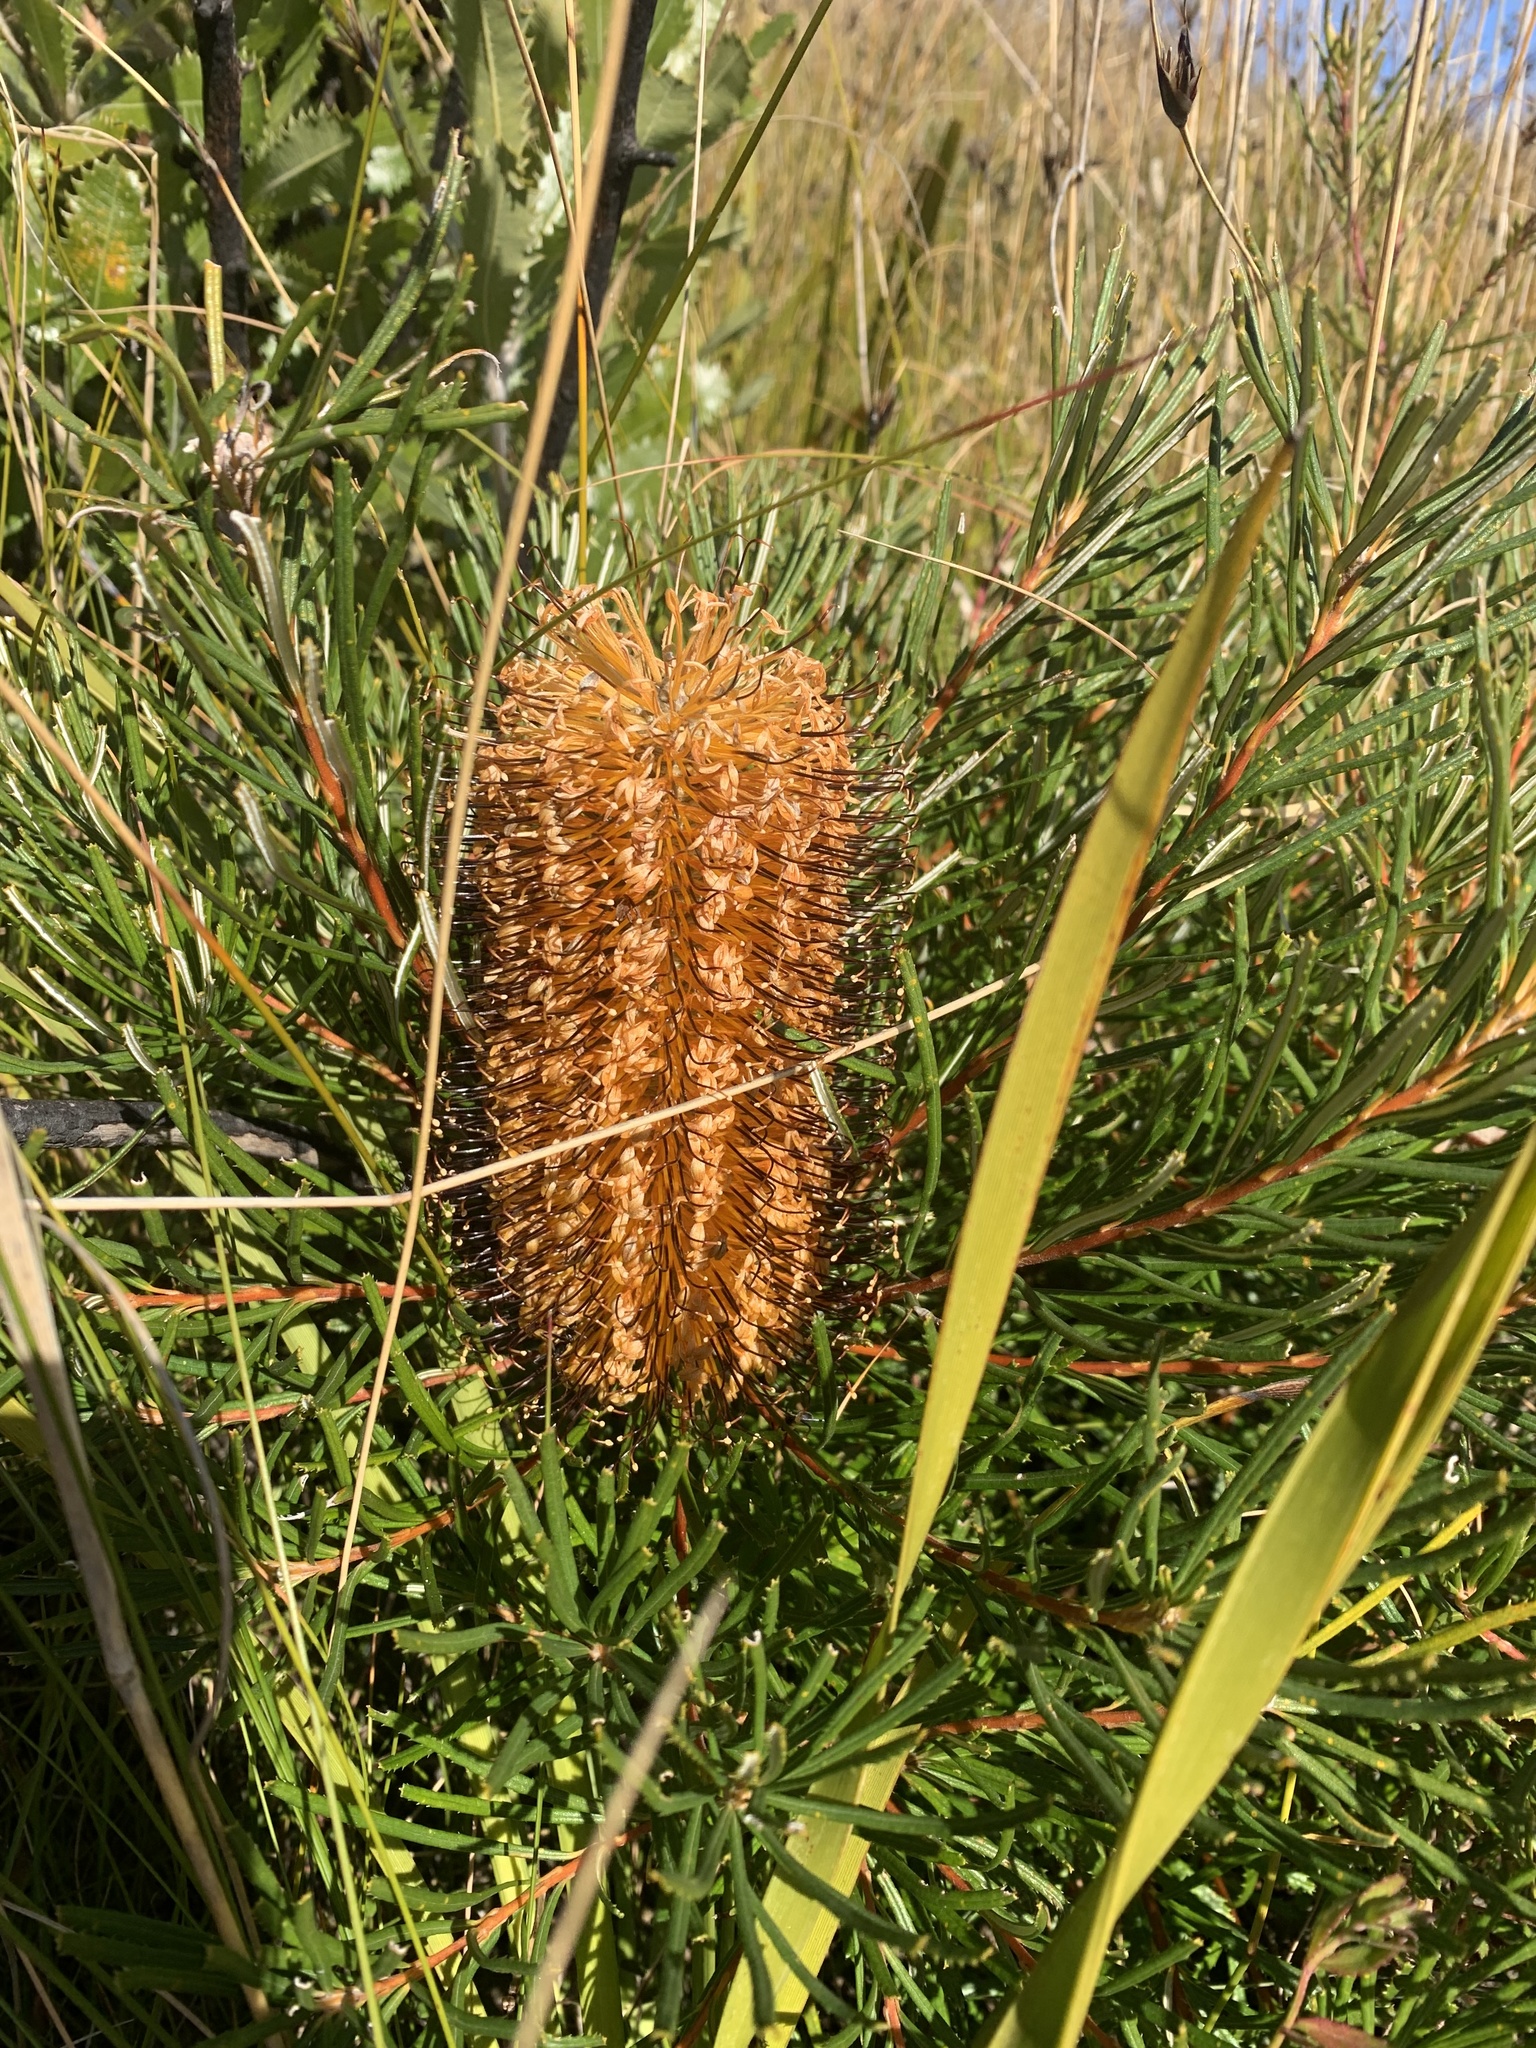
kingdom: Plantae
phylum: Tracheophyta
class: Magnoliopsida
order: Proteales
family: Proteaceae
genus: Banksia
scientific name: Banksia spinulosa
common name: Hairpin banksia
